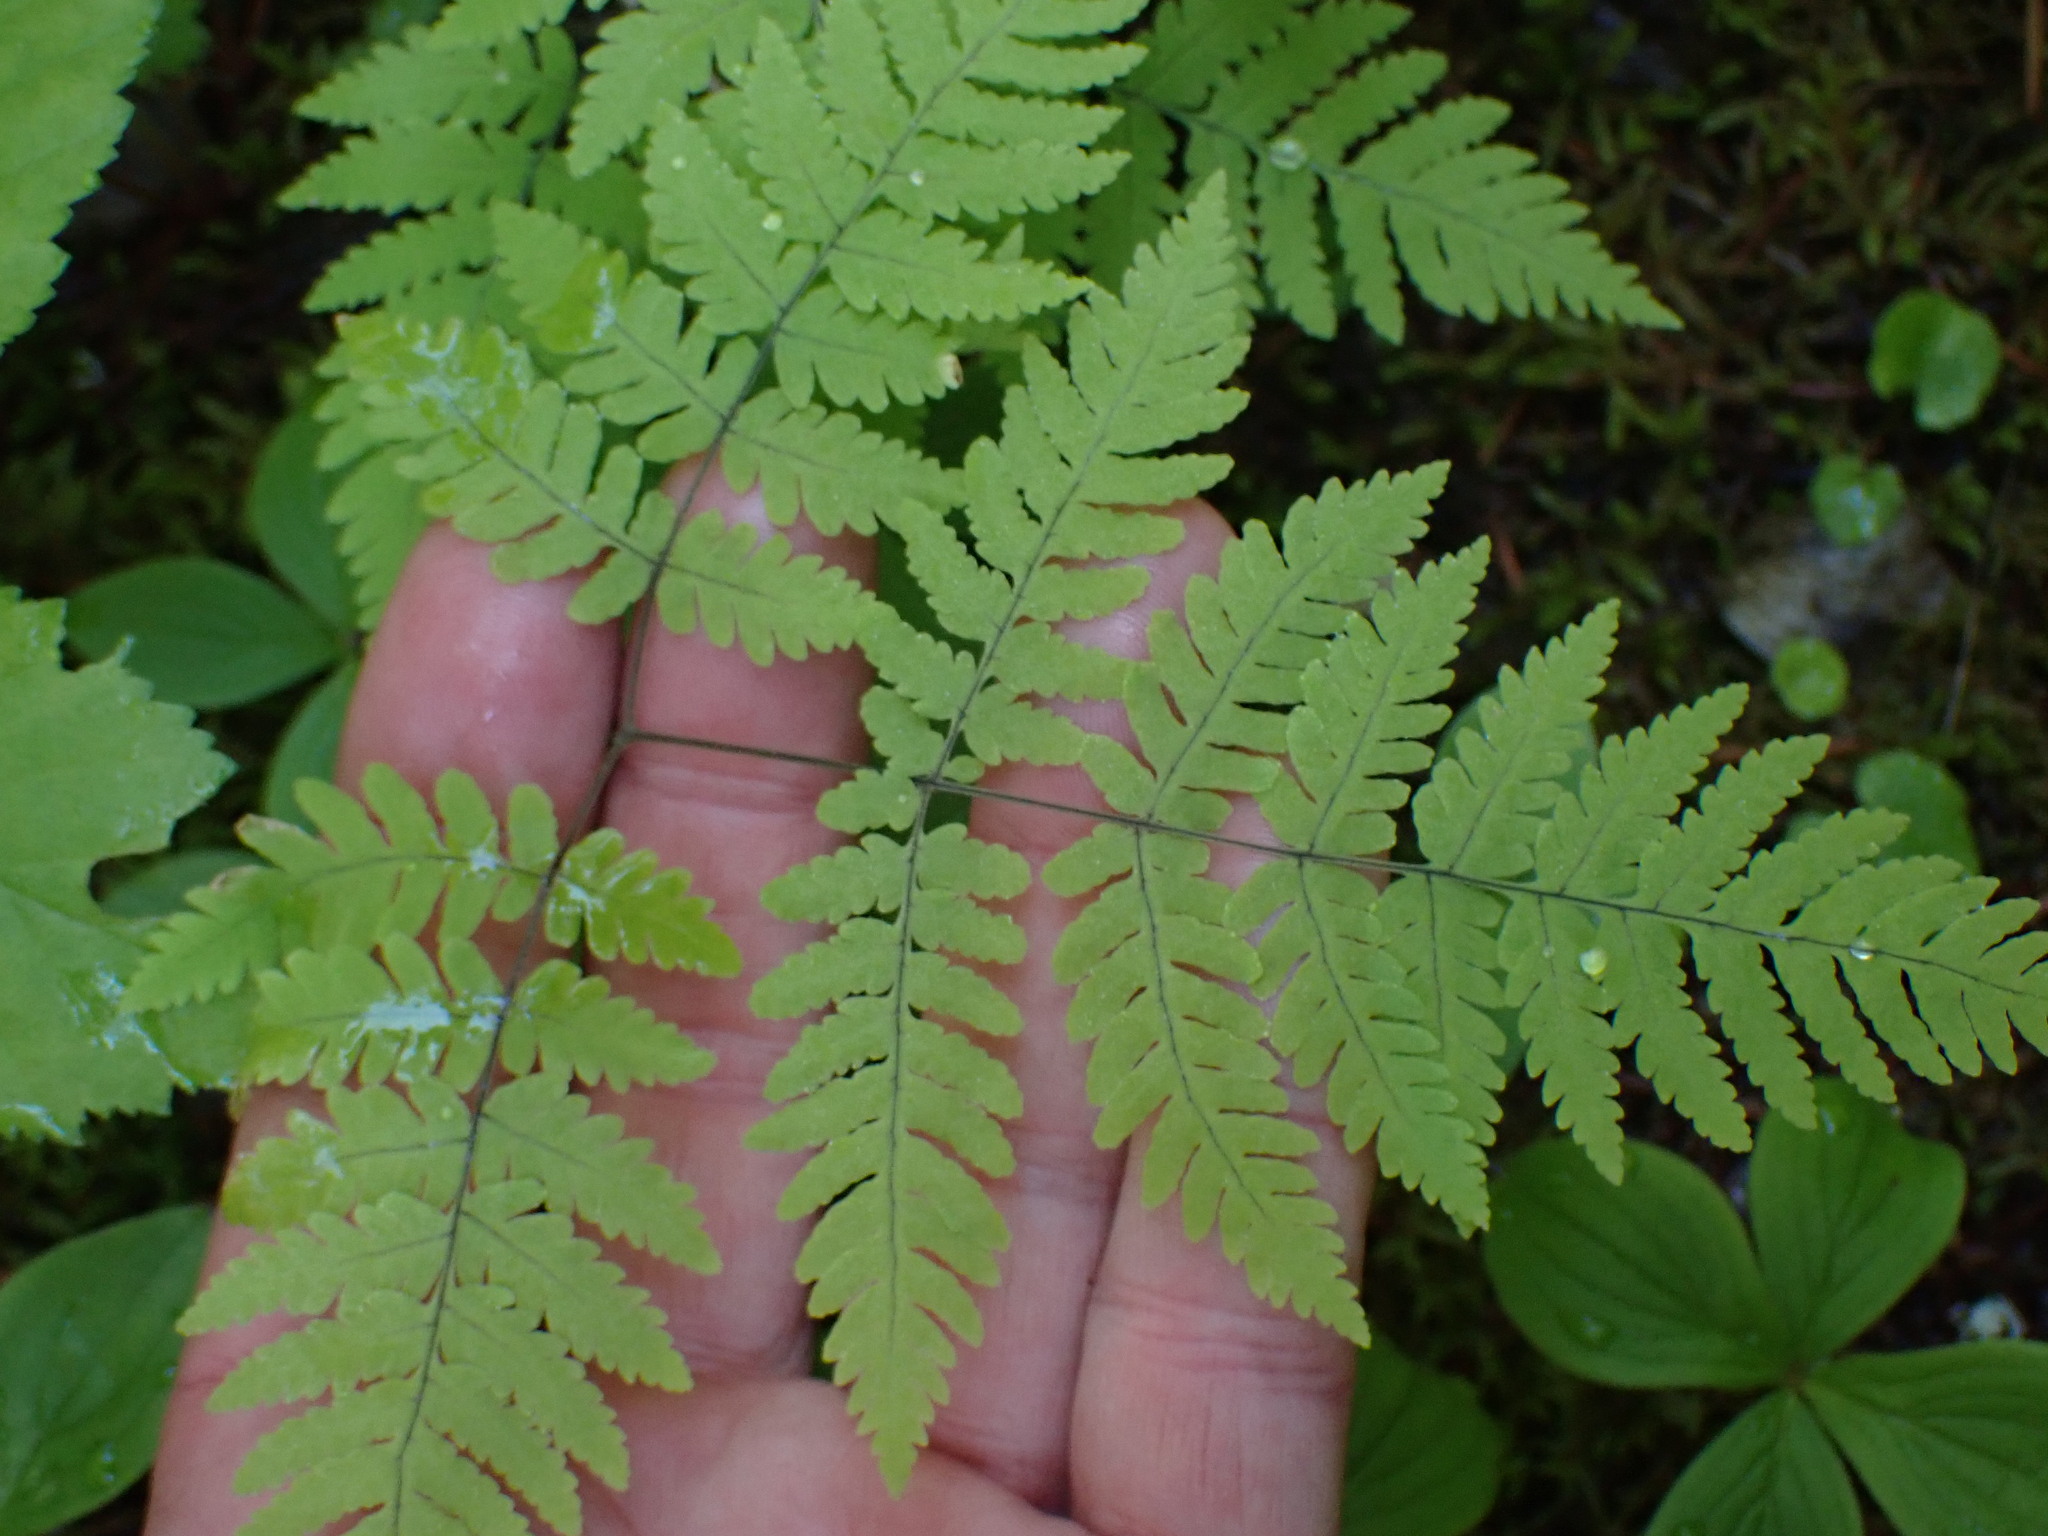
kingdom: Plantae
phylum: Tracheophyta
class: Polypodiopsida
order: Polypodiales
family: Cystopteridaceae
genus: Gymnocarpium
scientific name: Gymnocarpium disjunctum
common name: Western oak fern
